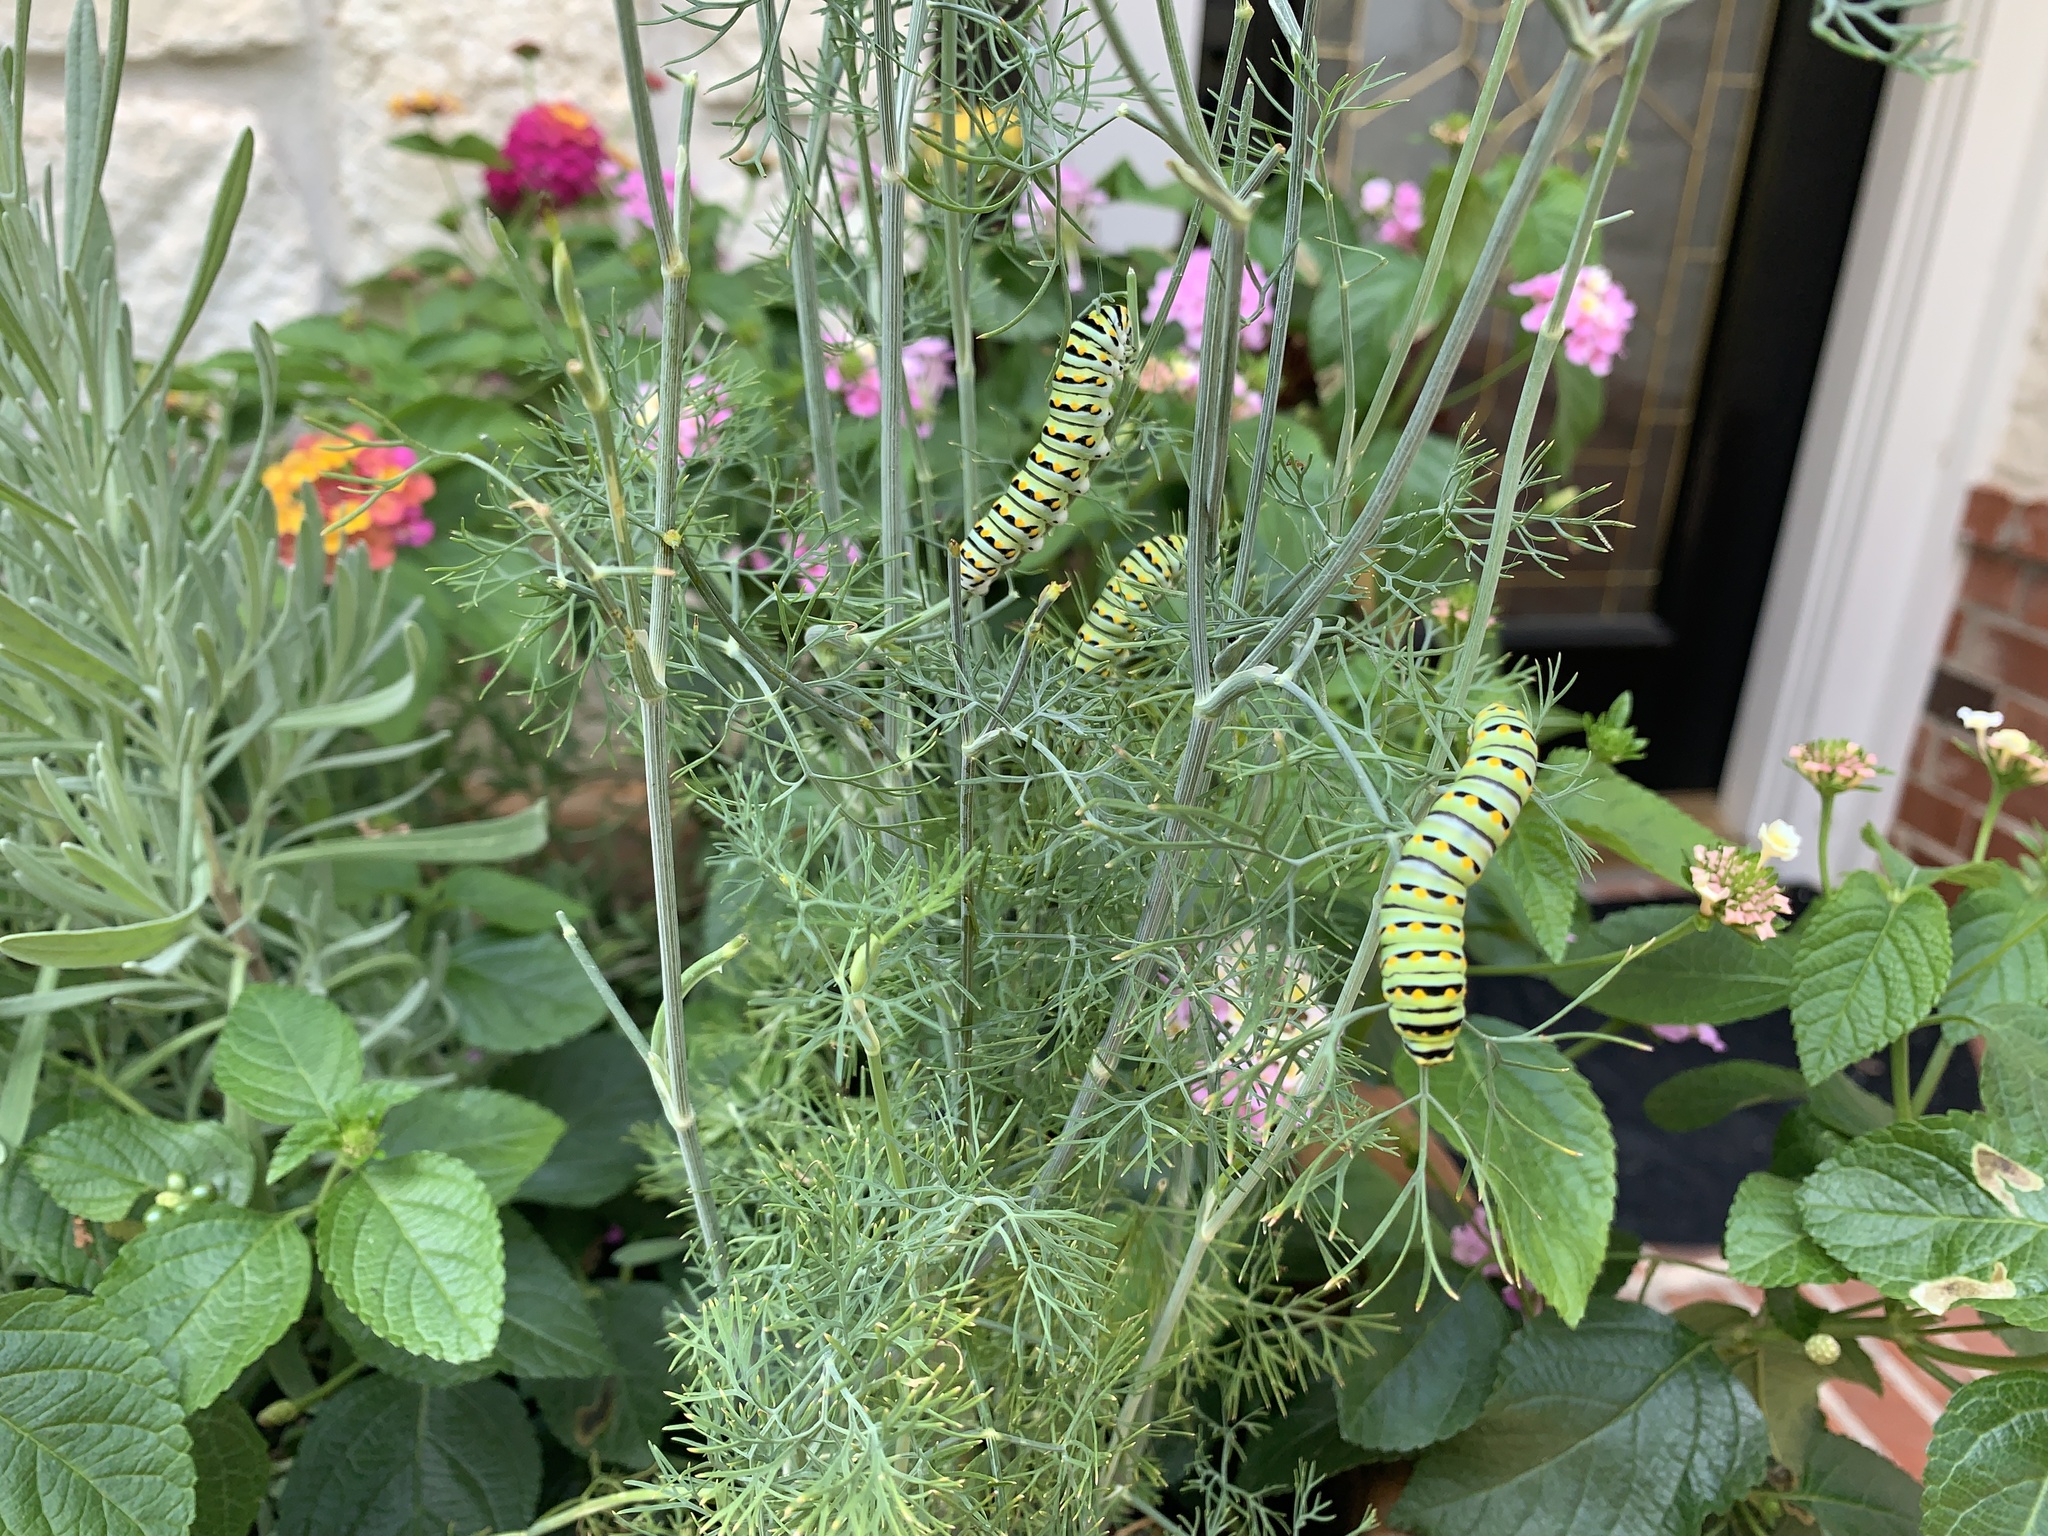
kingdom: Animalia
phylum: Arthropoda
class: Insecta
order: Lepidoptera
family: Papilionidae
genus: Papilio
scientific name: Papilio polyxenes
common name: Black swallowtail
